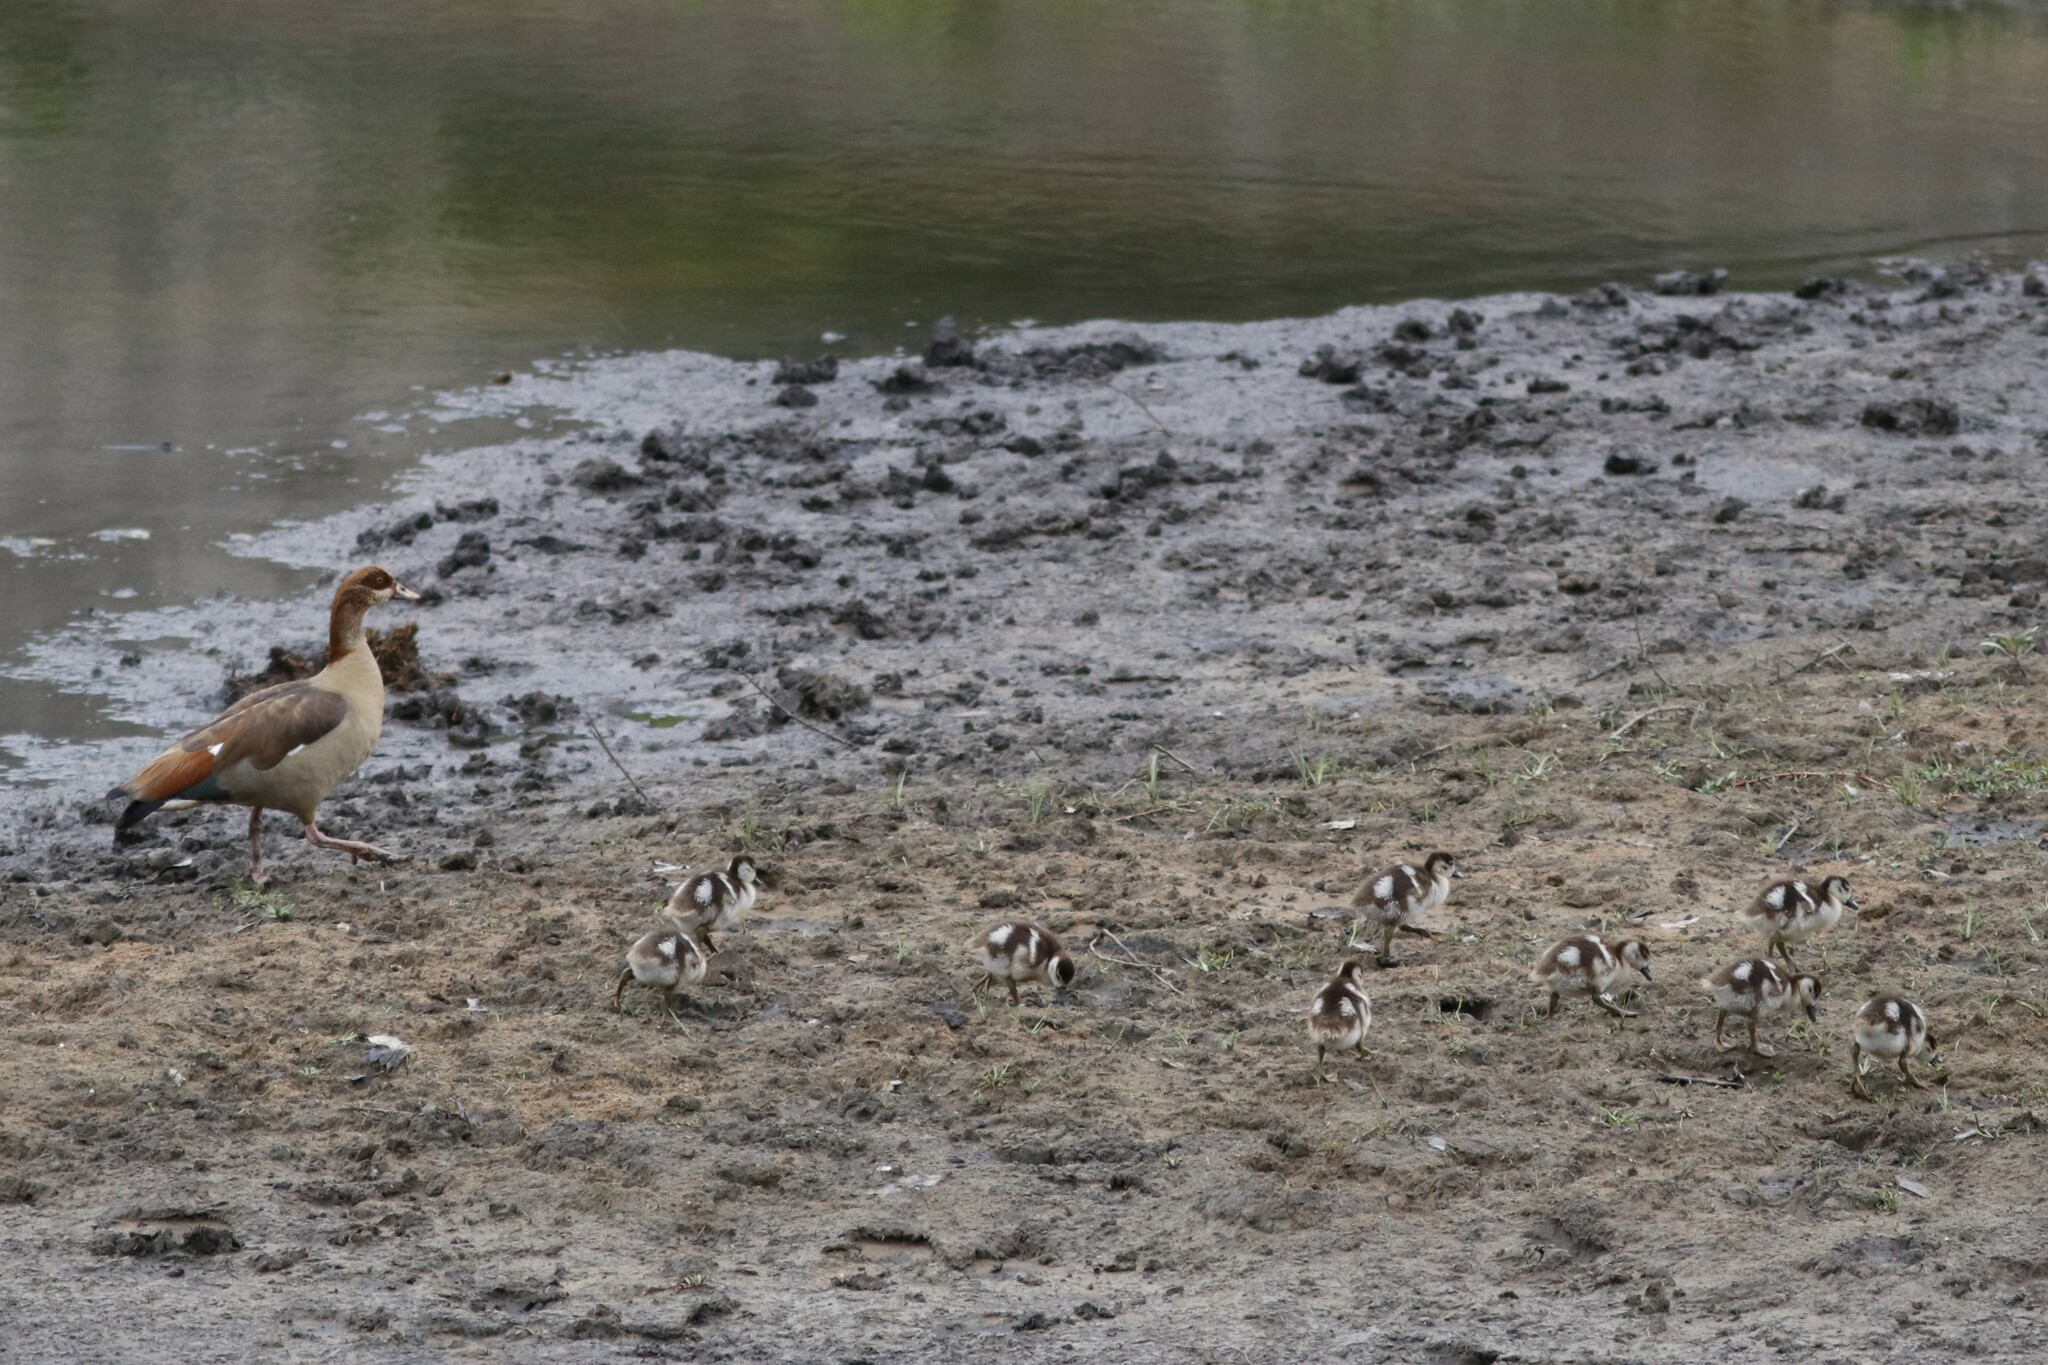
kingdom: Animalia
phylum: Chordata
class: Aves
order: Anseriformes
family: Anatidae
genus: Alopochen
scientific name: Alopochen aegyptiaca
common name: Egyptian goose
